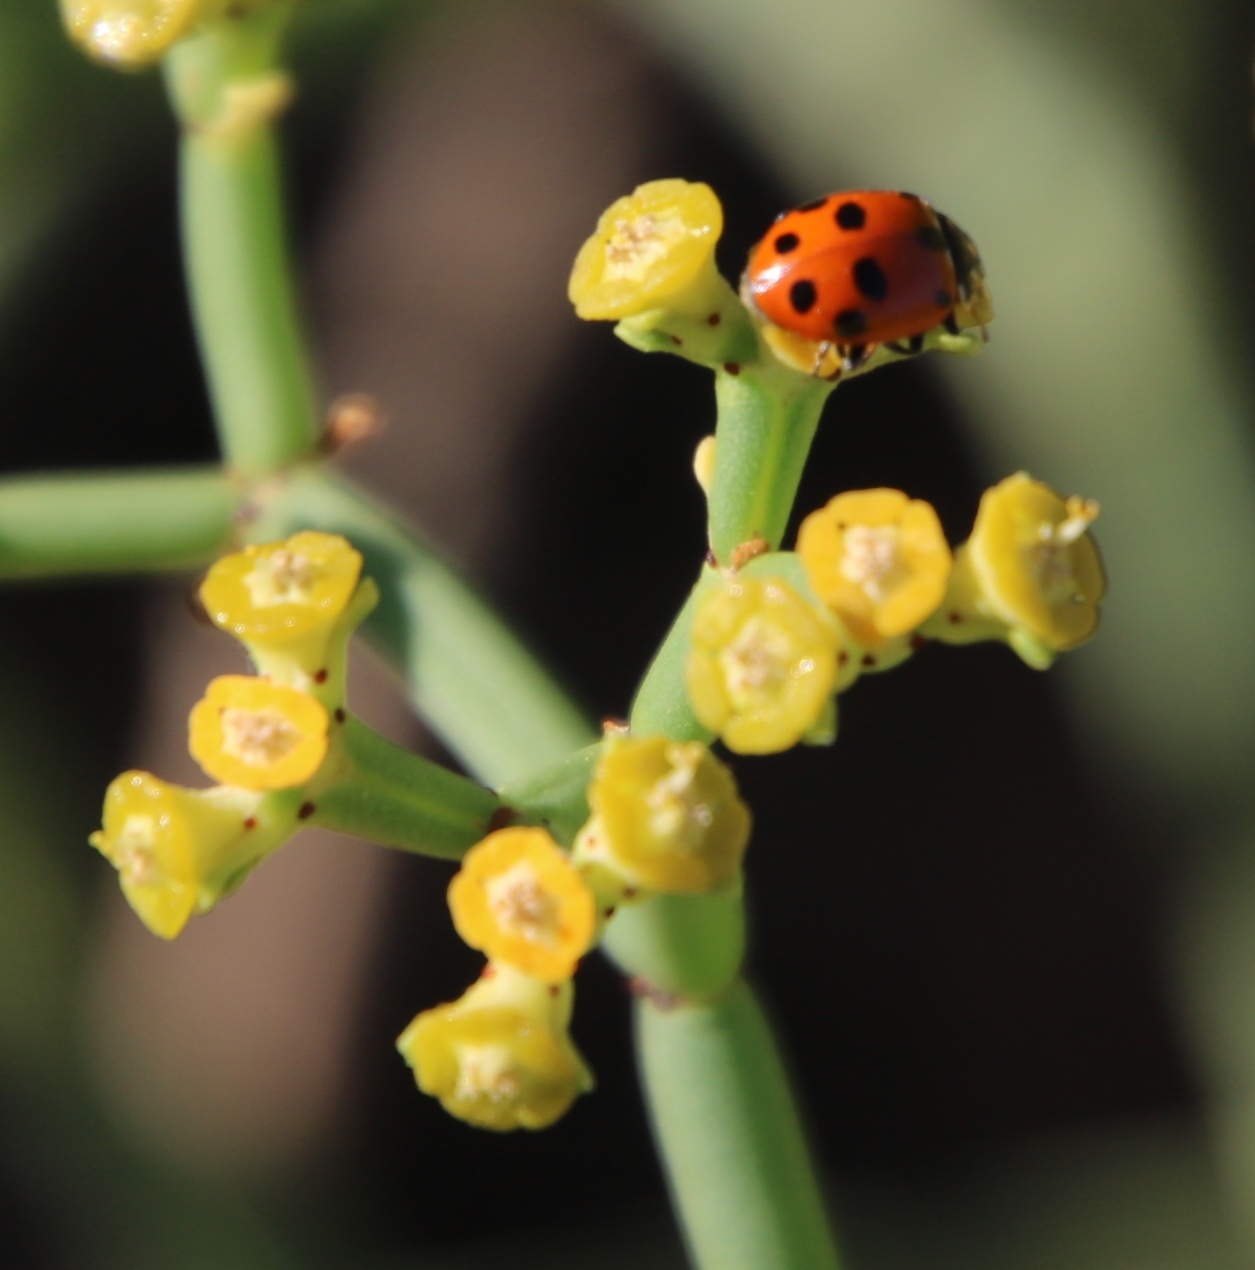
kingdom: Animalia
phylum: Arthropoda
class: Insecta
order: Coleoptera
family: Coccinellidae
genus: Hippodamia
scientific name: Hippodamia variegata
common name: Ladybird beetle
